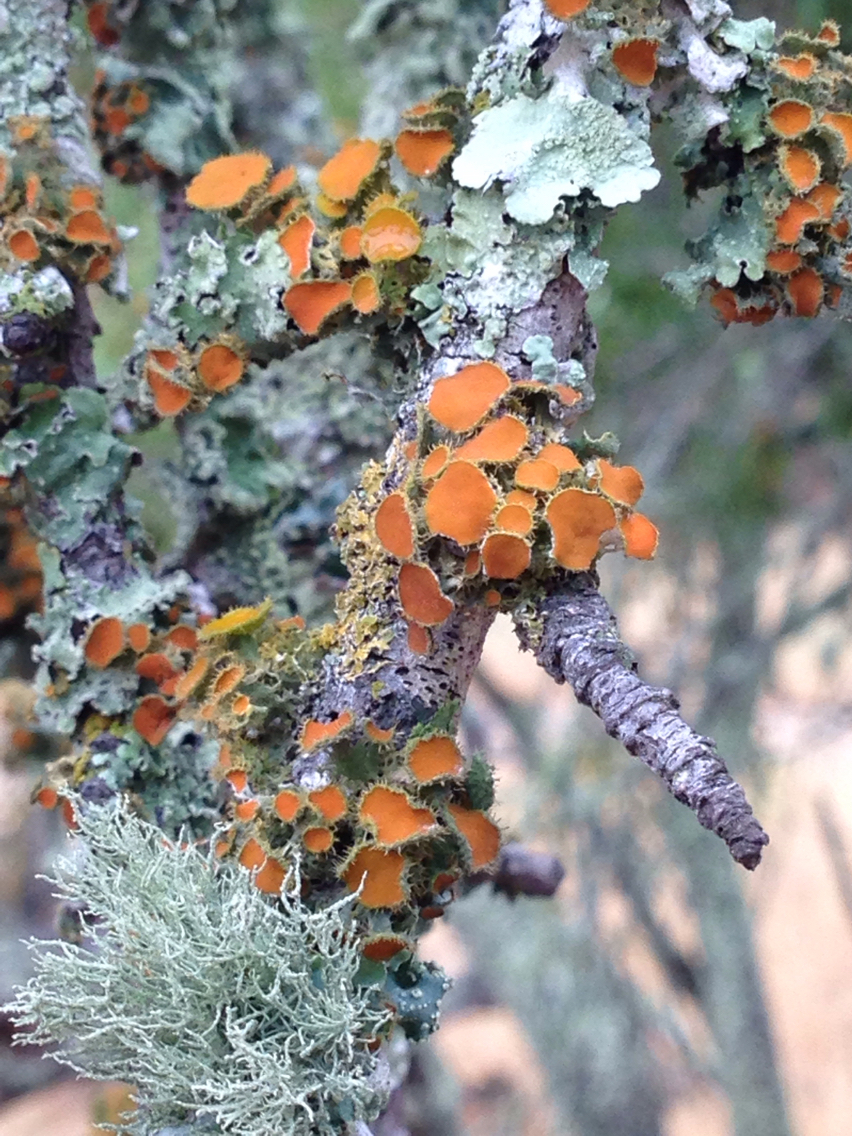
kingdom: Fungi
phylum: Ascomycota
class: Lecanoromycetes
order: Teloschistales
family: Teloschistaceae
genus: Niorma
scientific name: Niorma chrysophthalma
